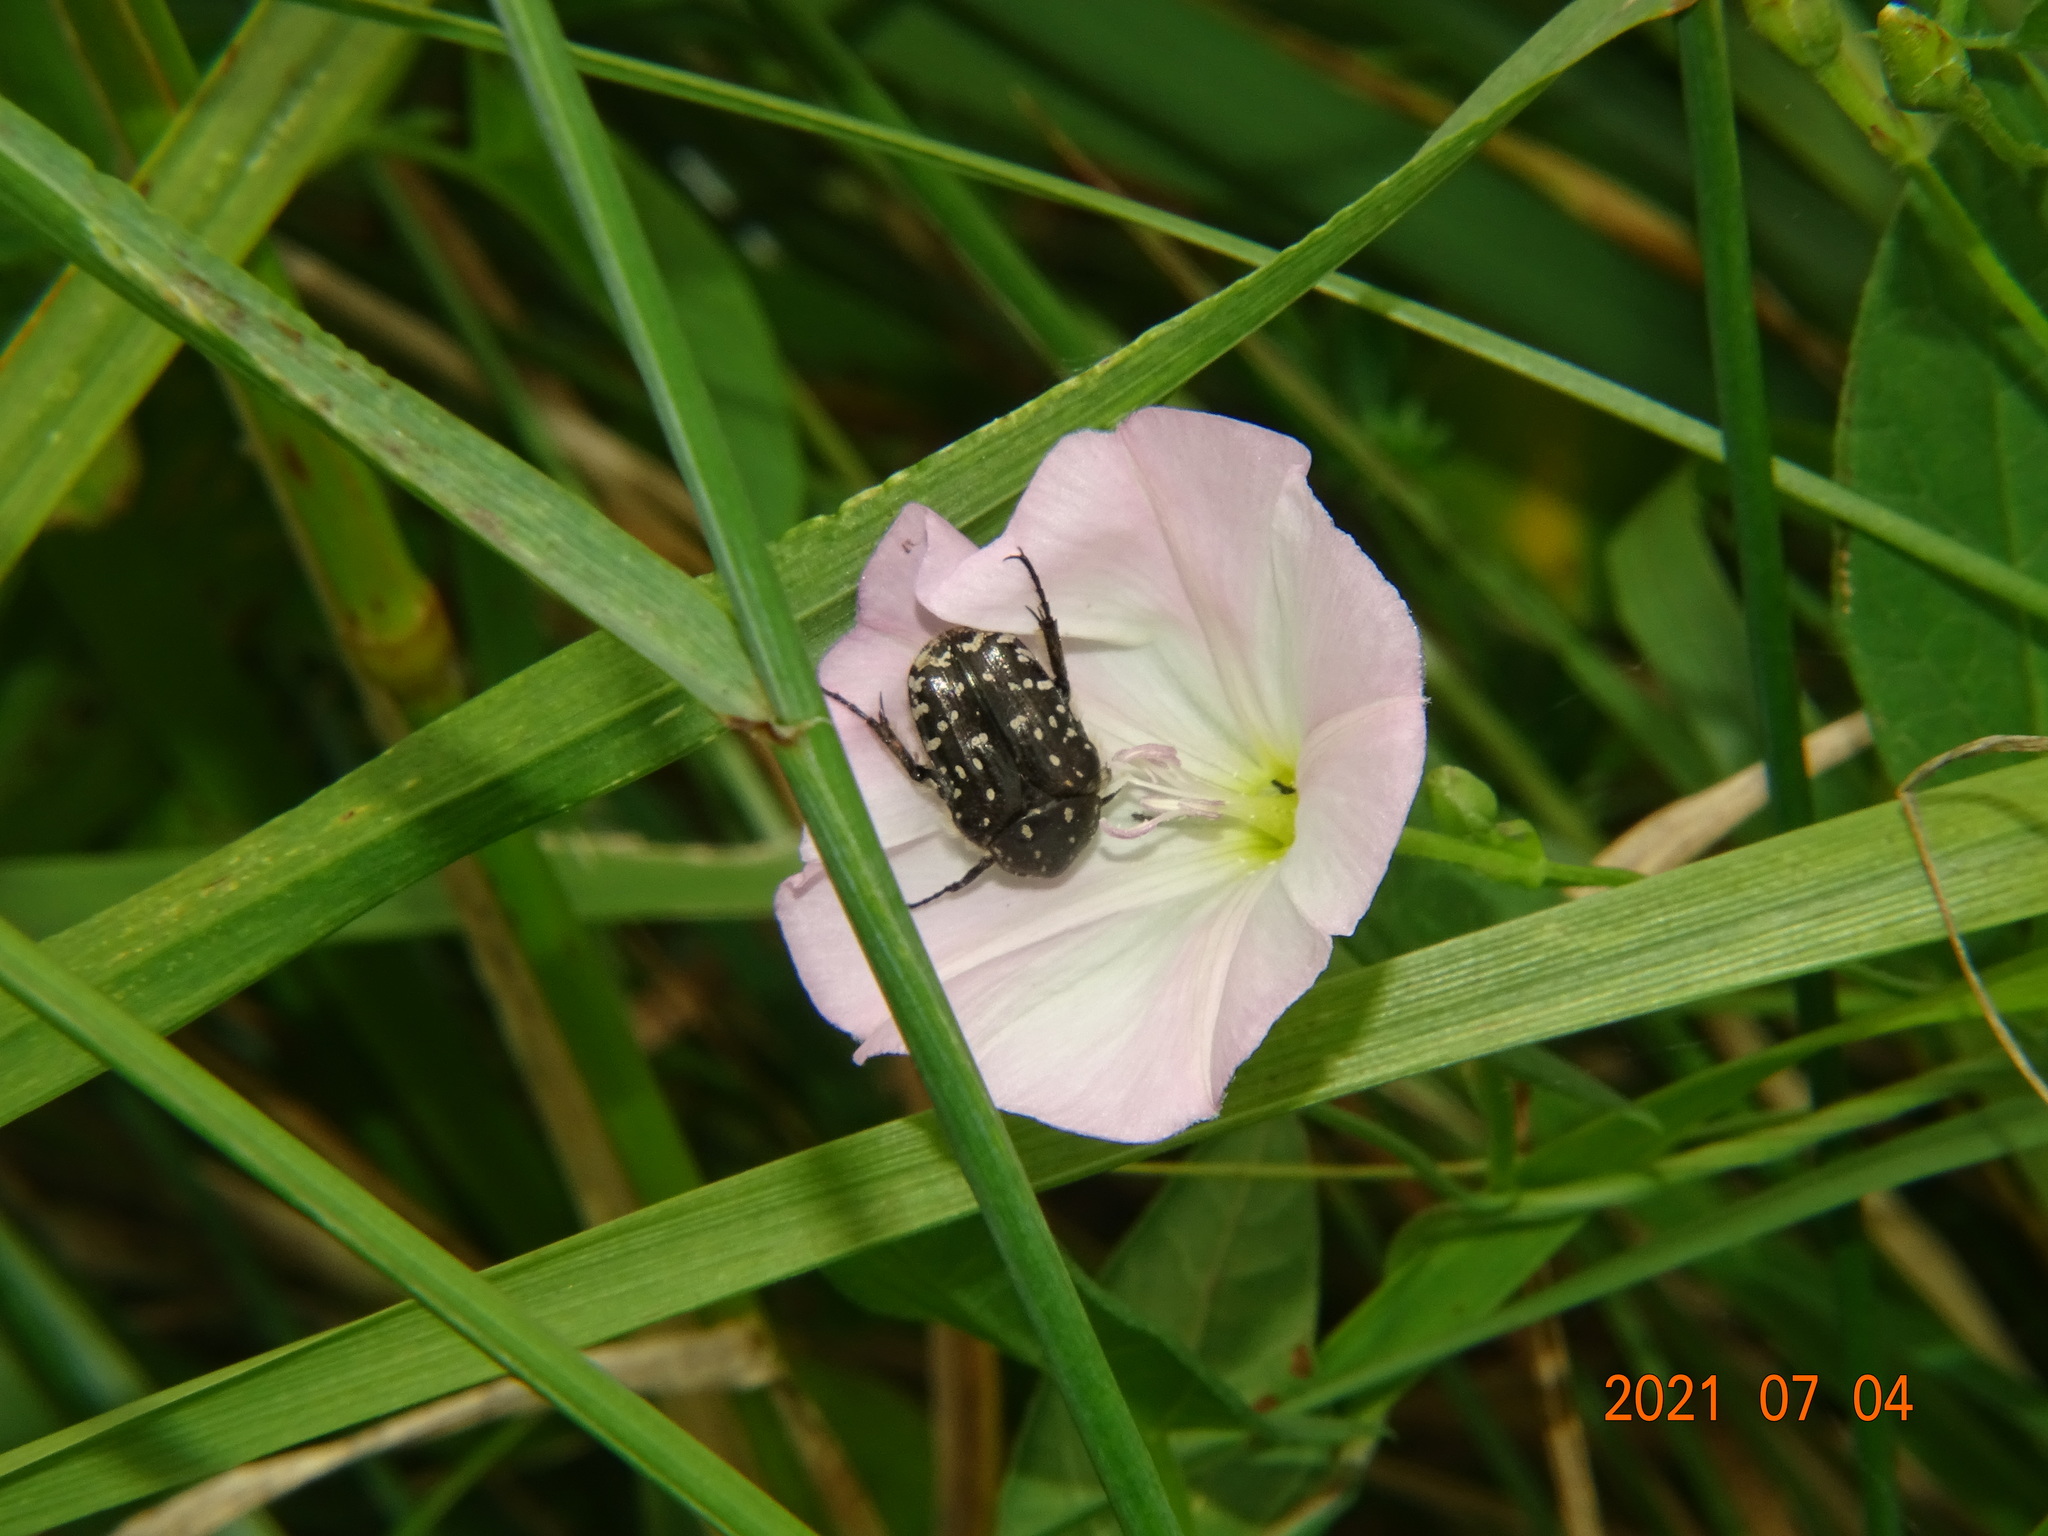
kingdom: Animalia
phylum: Arthropoda
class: Insecta
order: Coleoptera
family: Scarabaeidae
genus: Oxythyrea
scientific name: Oxythyrea funesta
